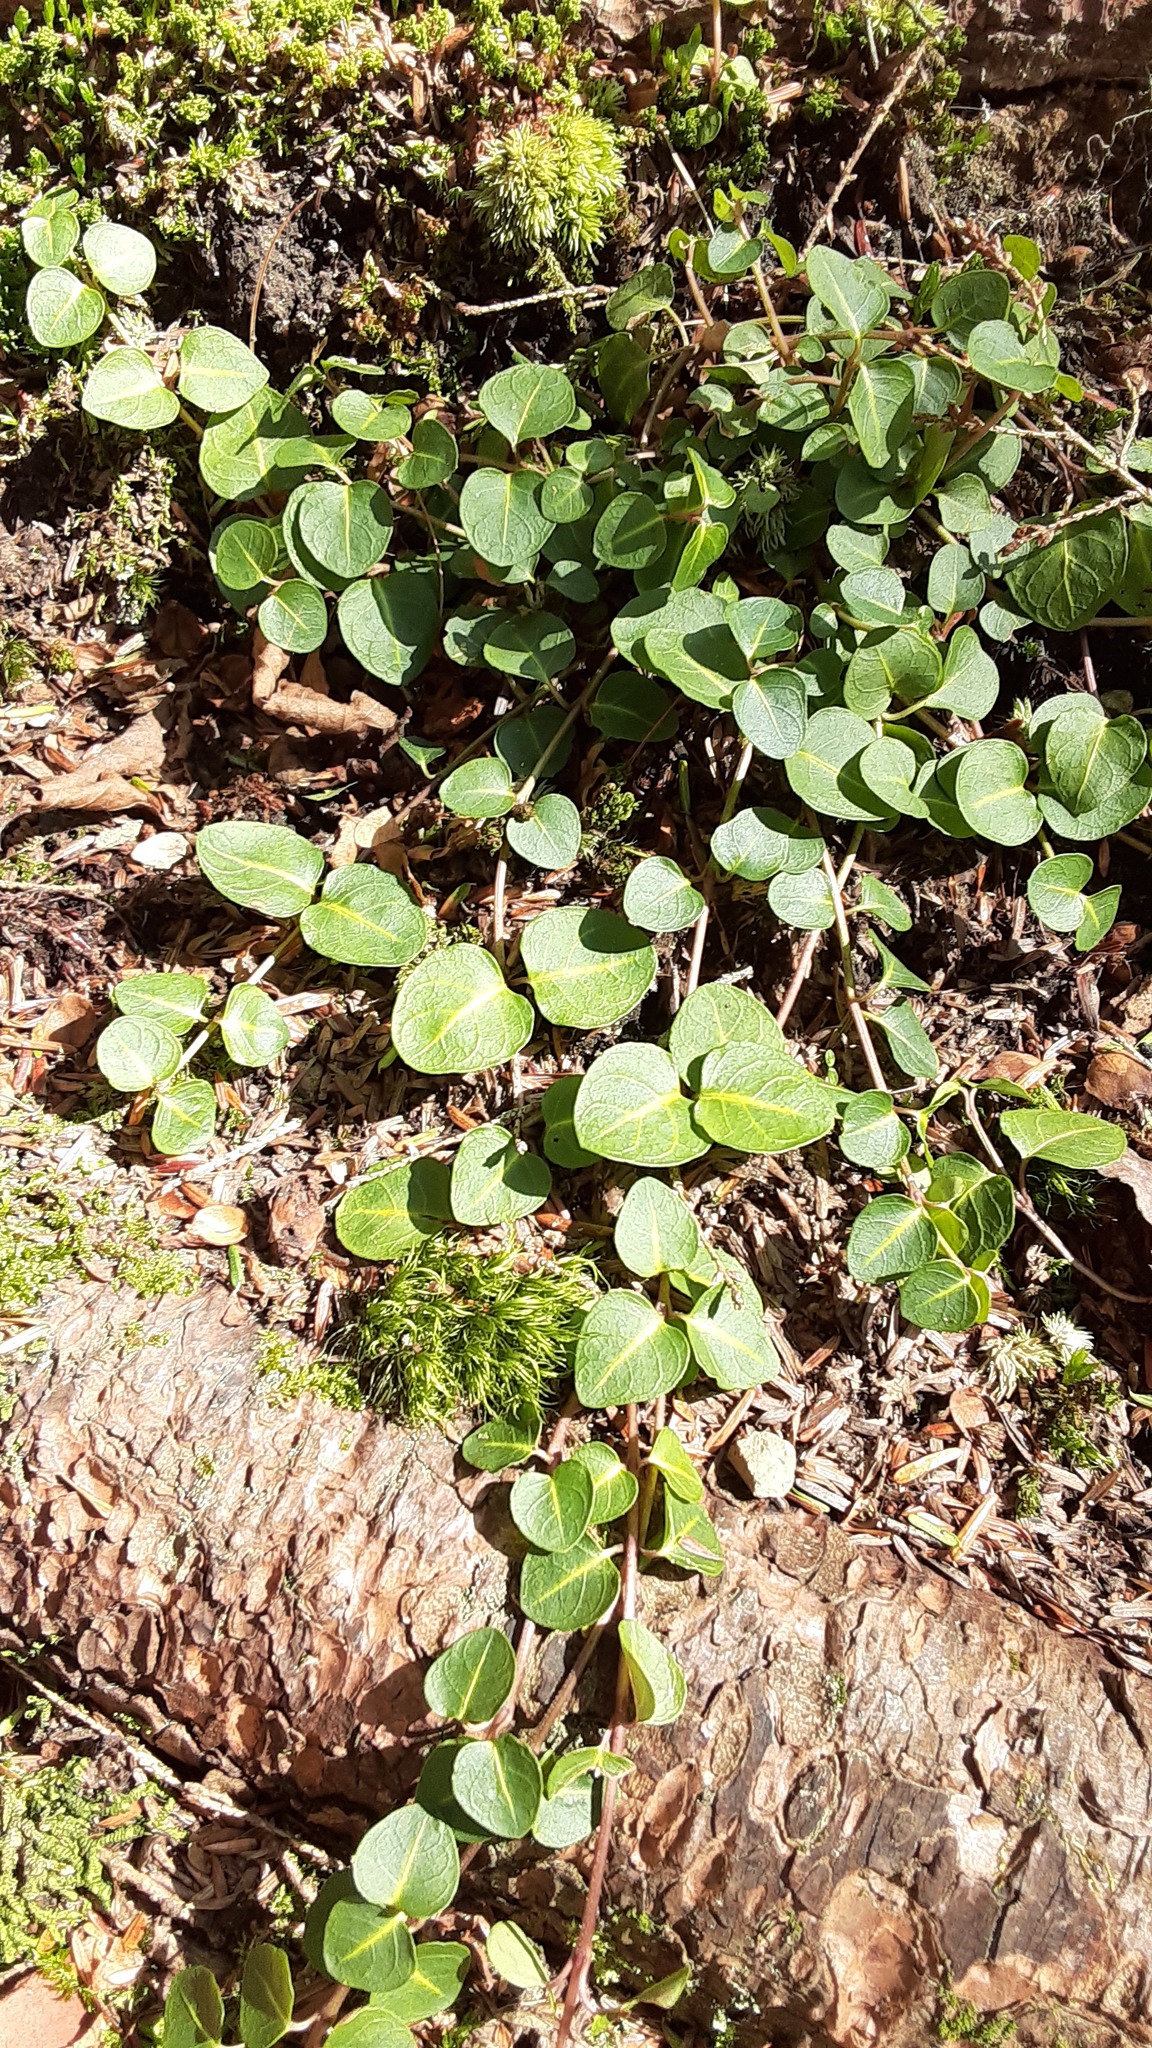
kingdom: Plantae
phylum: Tracheophyta
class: Magnoliopsida
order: Gentianales
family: Rubiaceae
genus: Mitchella
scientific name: Mitchella repens
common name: Partridge-berry
